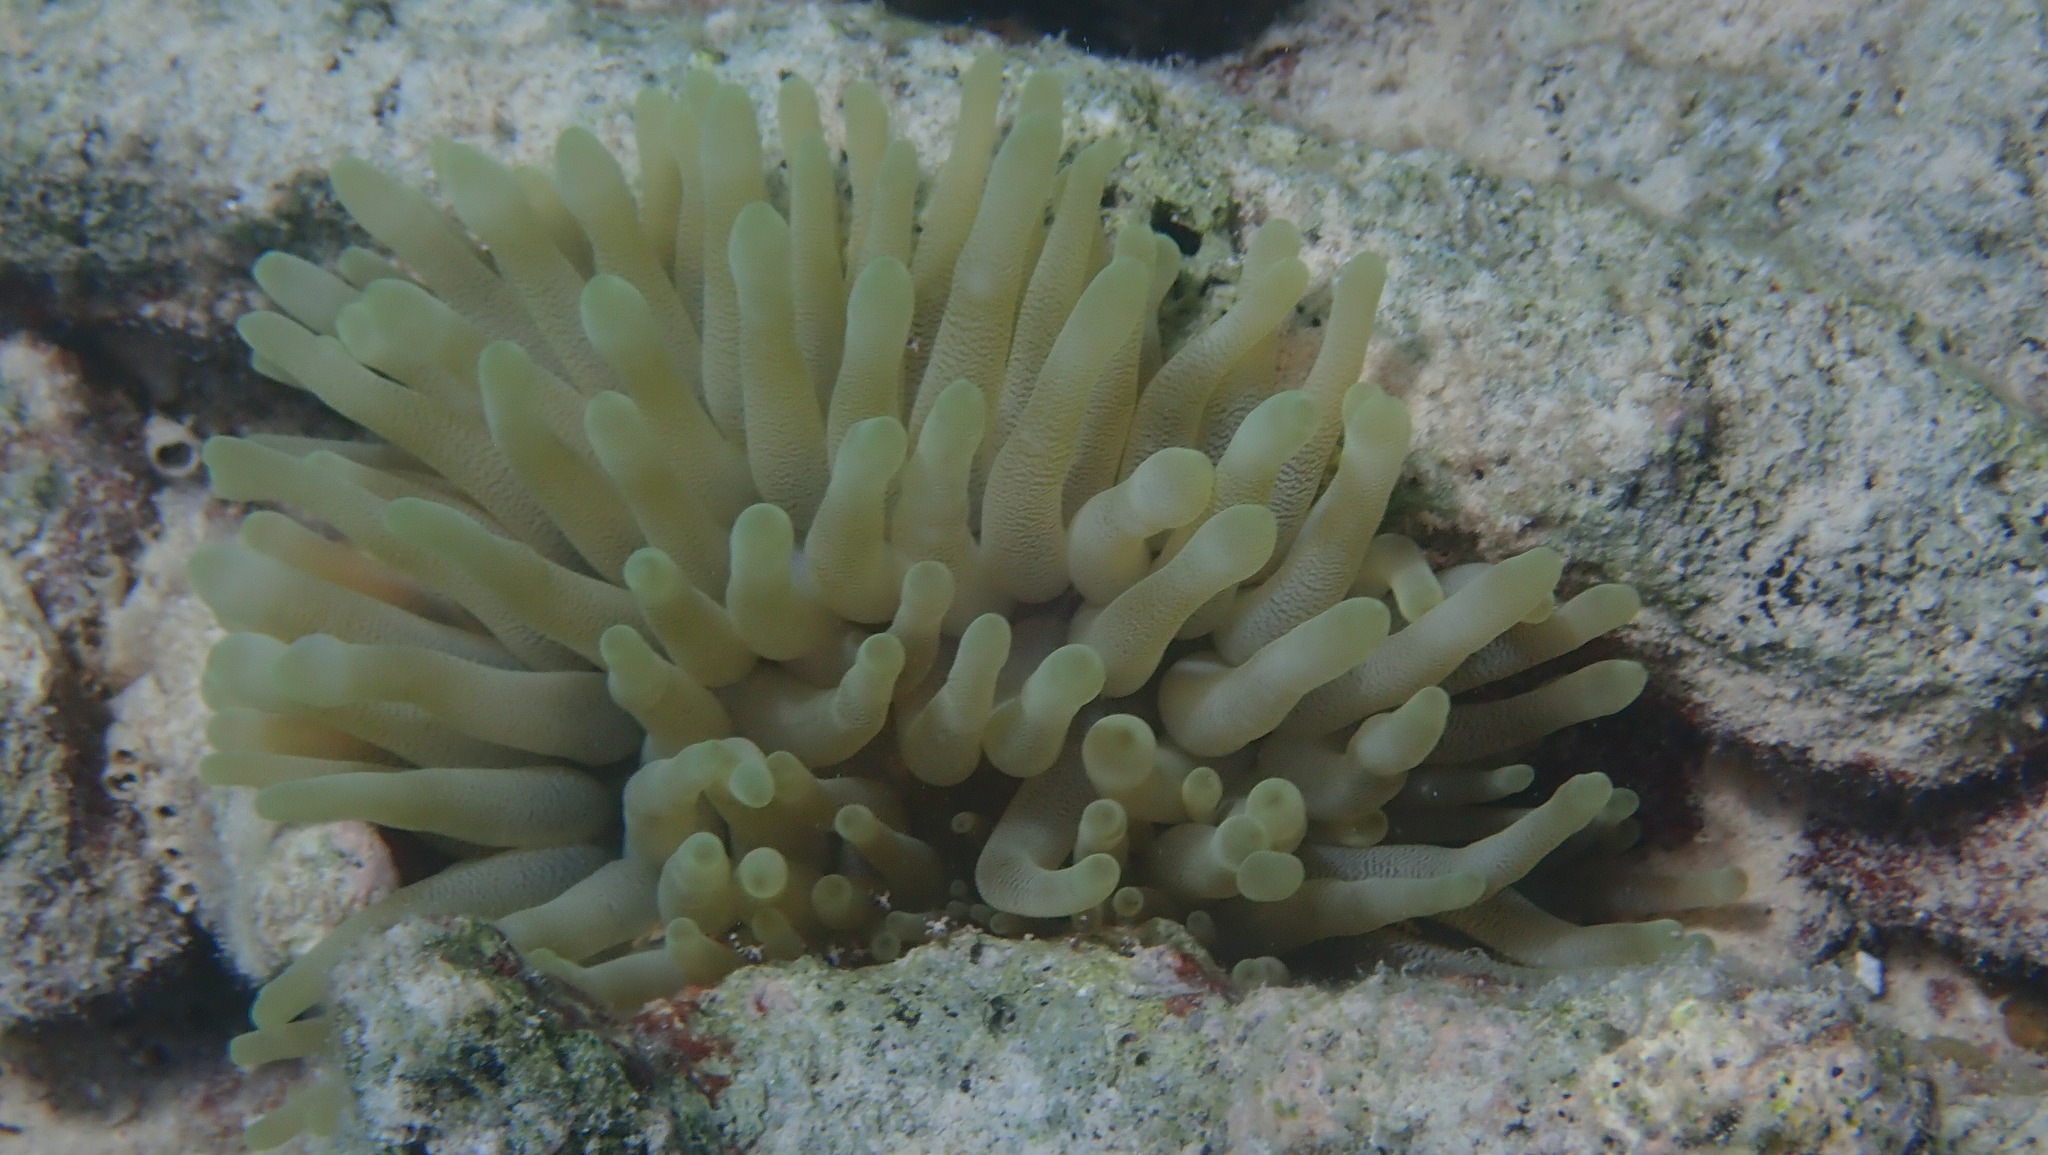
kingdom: Animalia
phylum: Cnidaria
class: Anthozoa
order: Actiniaria
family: Actiniidae
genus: Condylactis
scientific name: Condylactis gigantea
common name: Giant caribbean anemone
